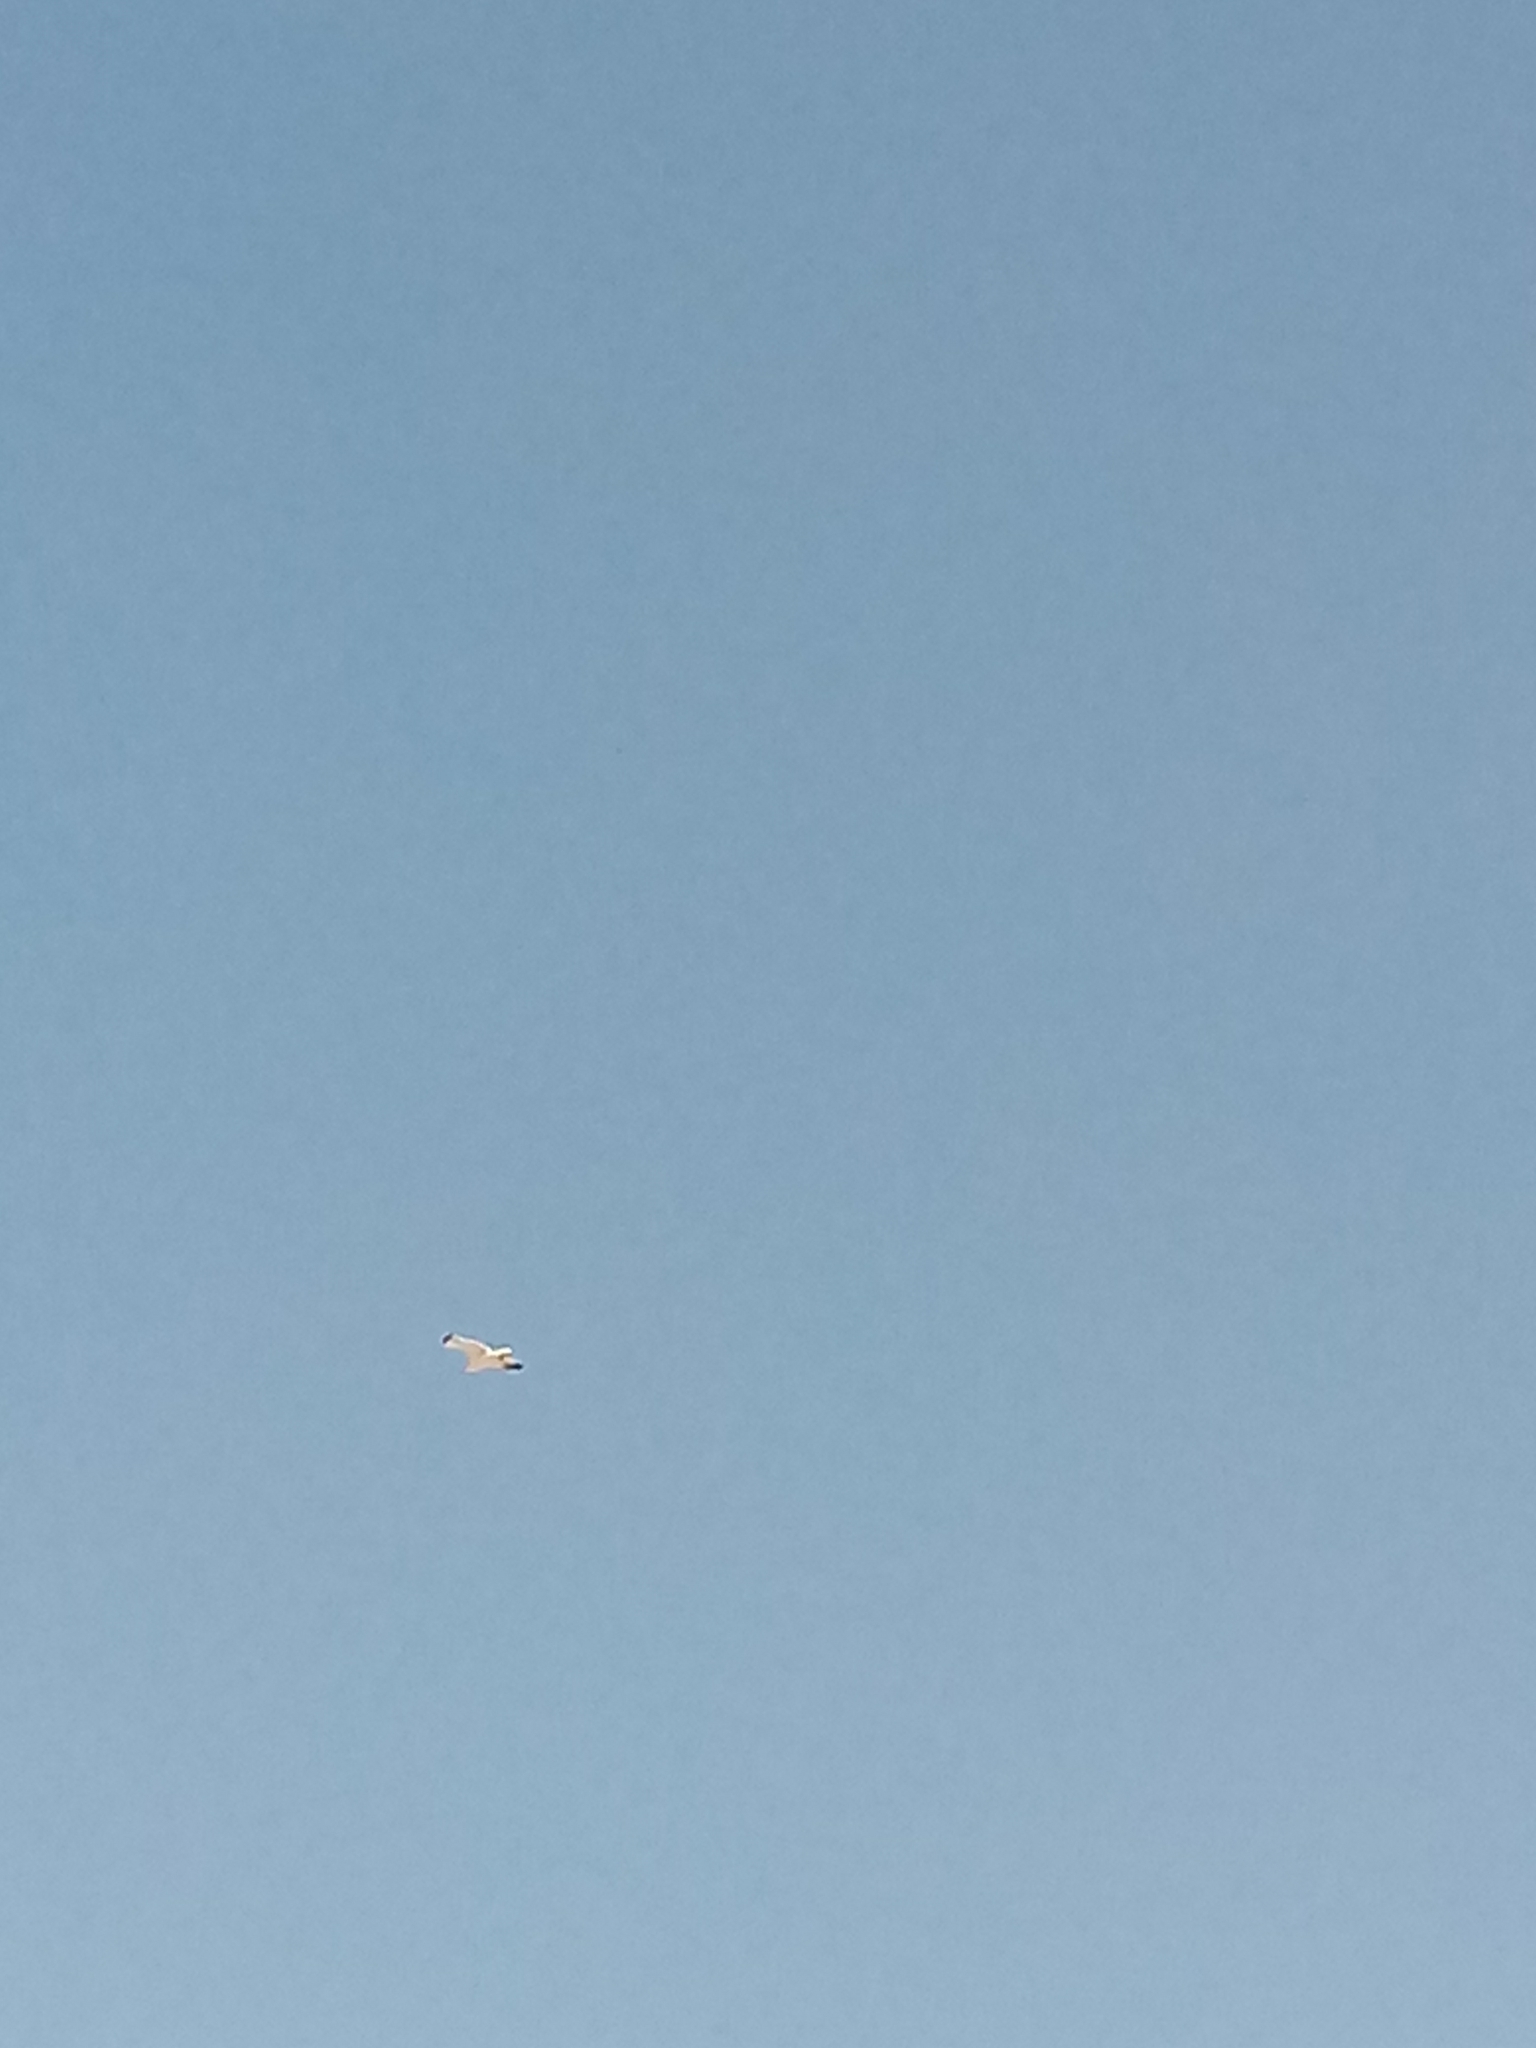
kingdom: Animalia
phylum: Chordata
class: Aves
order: Charadriiformes
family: Laridae
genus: Larus
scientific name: Larus californicus
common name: California gull
